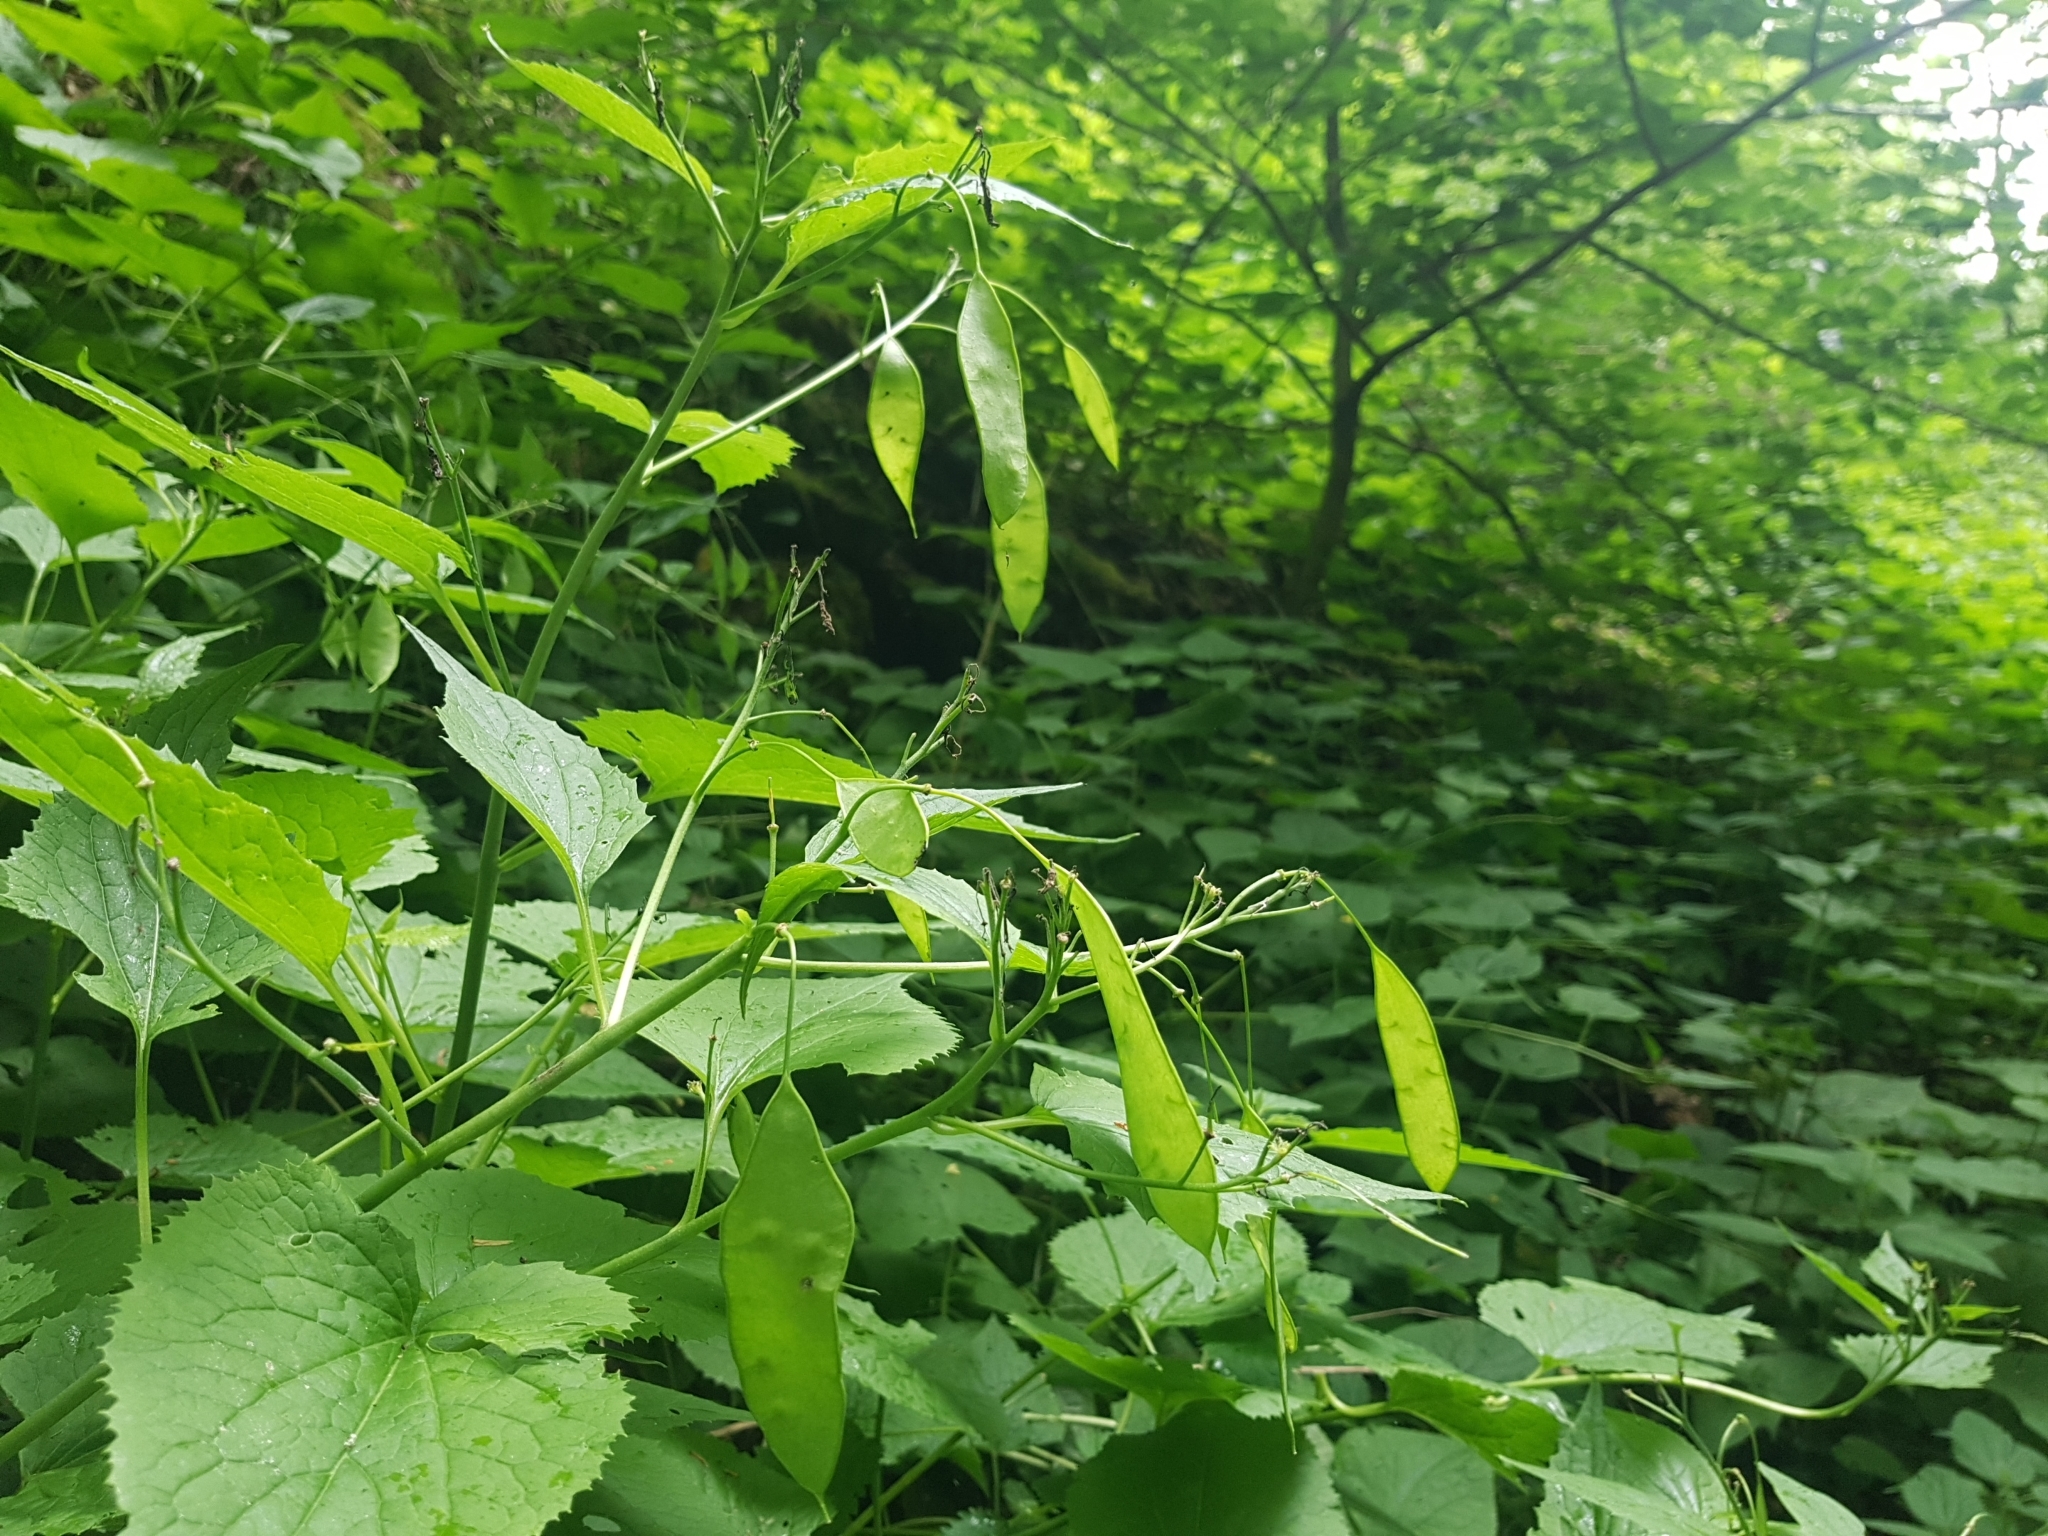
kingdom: Plantae
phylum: Tracheophyta
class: Magnoliopsida
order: Brassicales
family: Brassicaceae
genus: Lunaria
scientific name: Lunaria rediviva
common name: Perennial honesty
